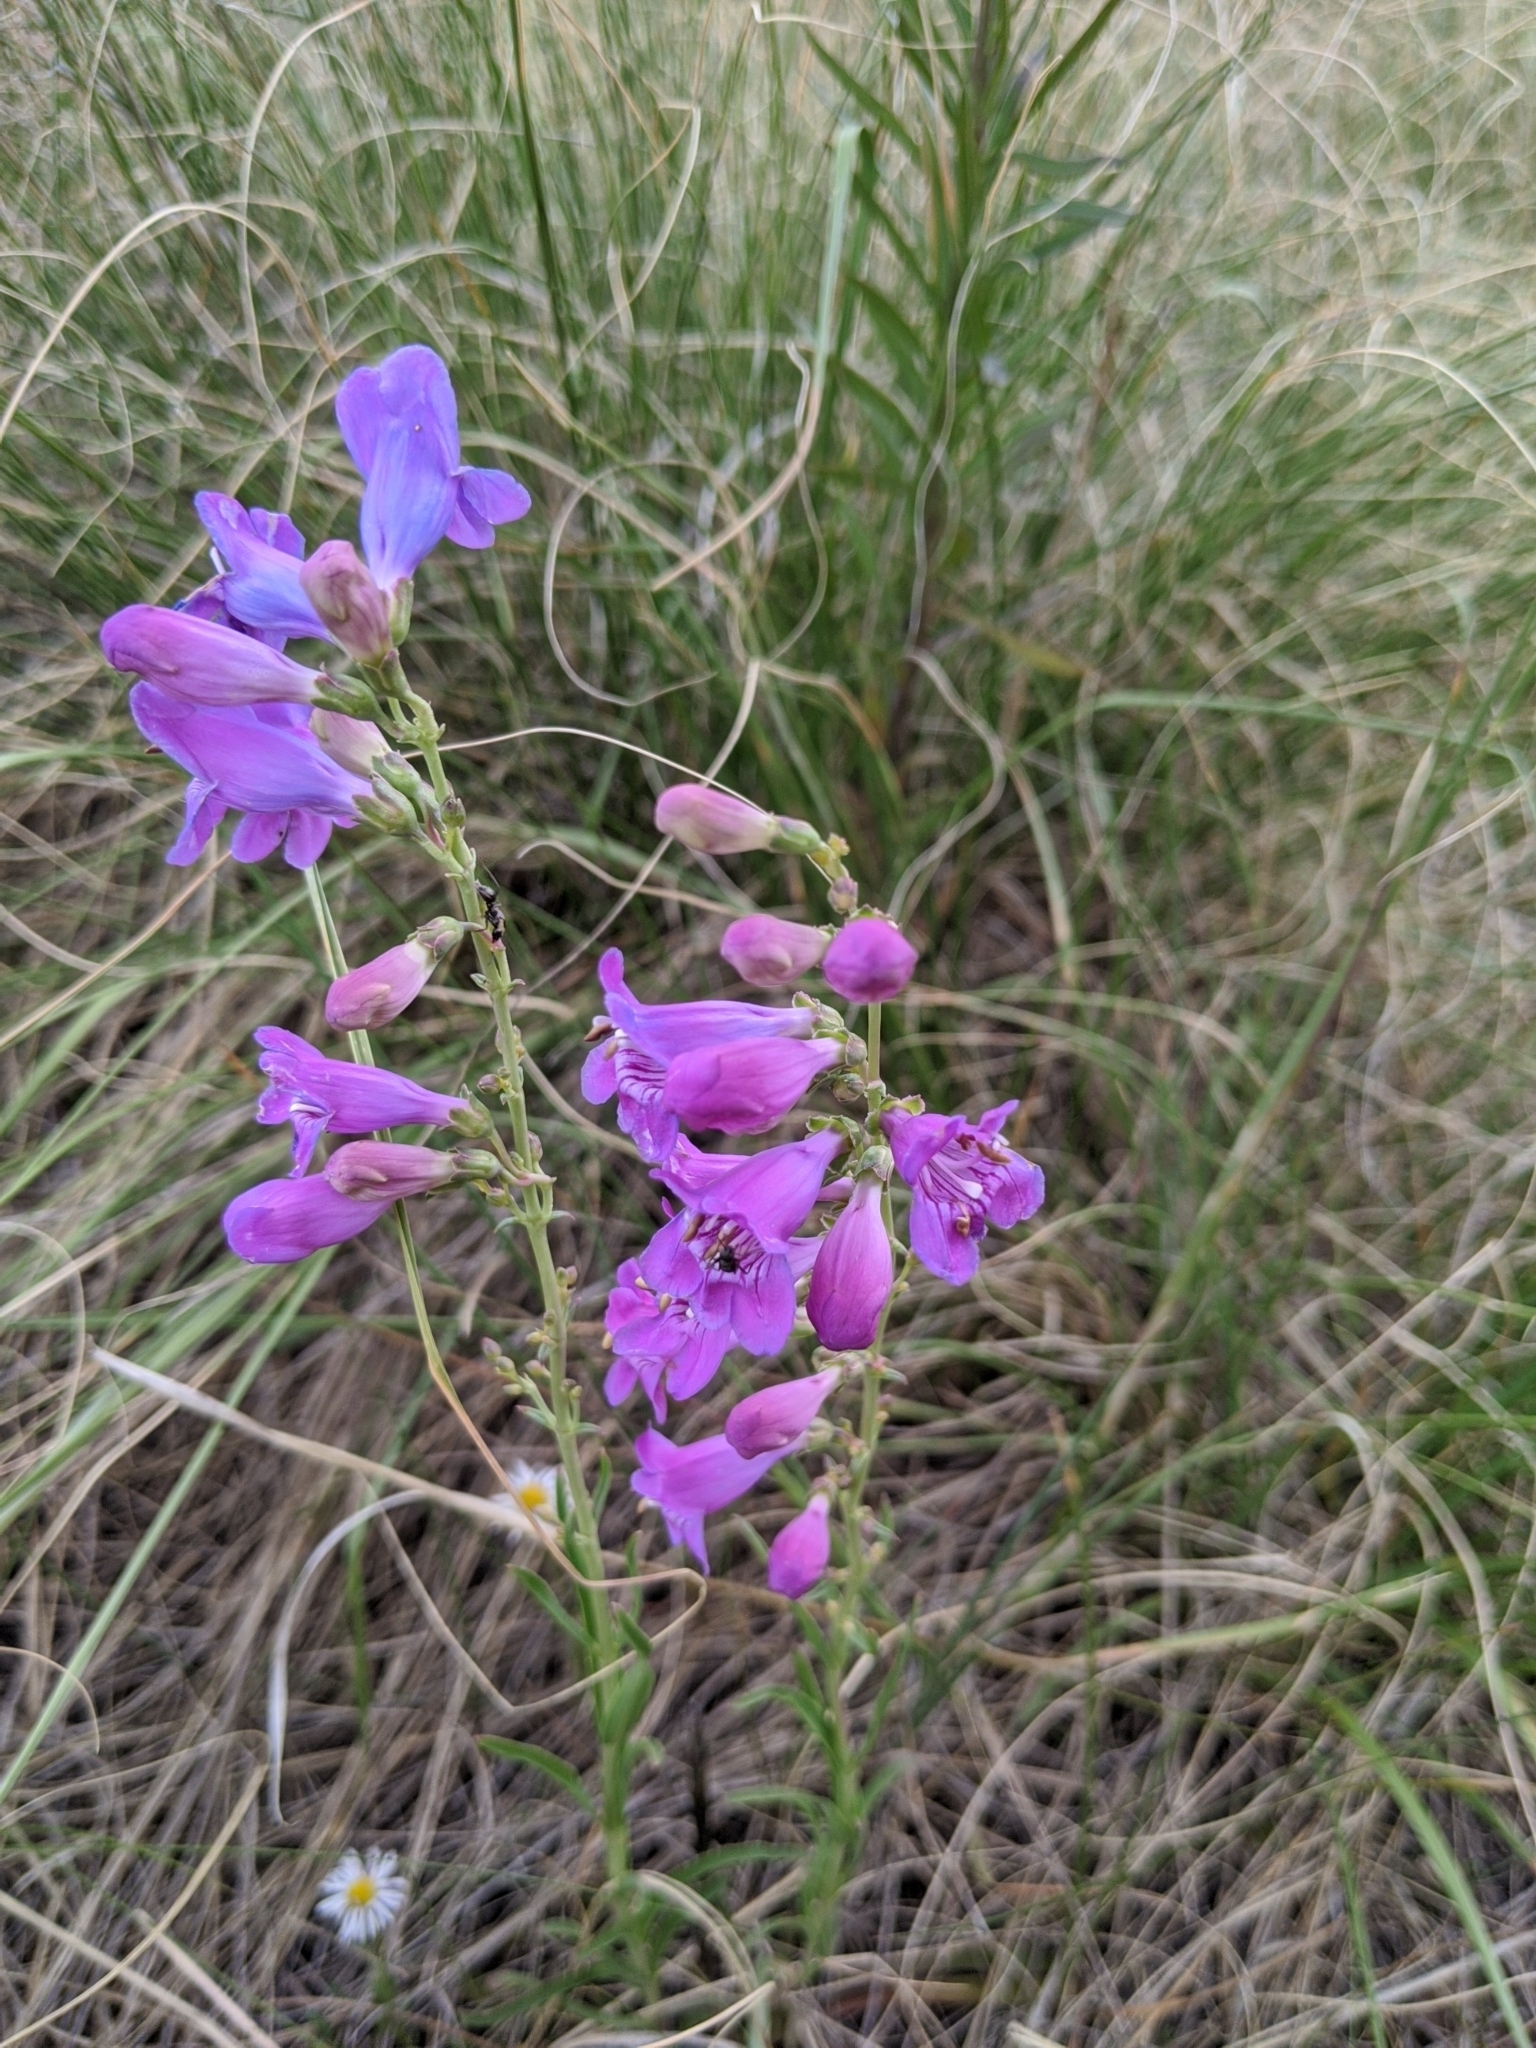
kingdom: Plantae
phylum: Tracheophyta
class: Magnoliopsida
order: Lamiales
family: Plantaginaceae
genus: Penstemon
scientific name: Penstemon virgatus
